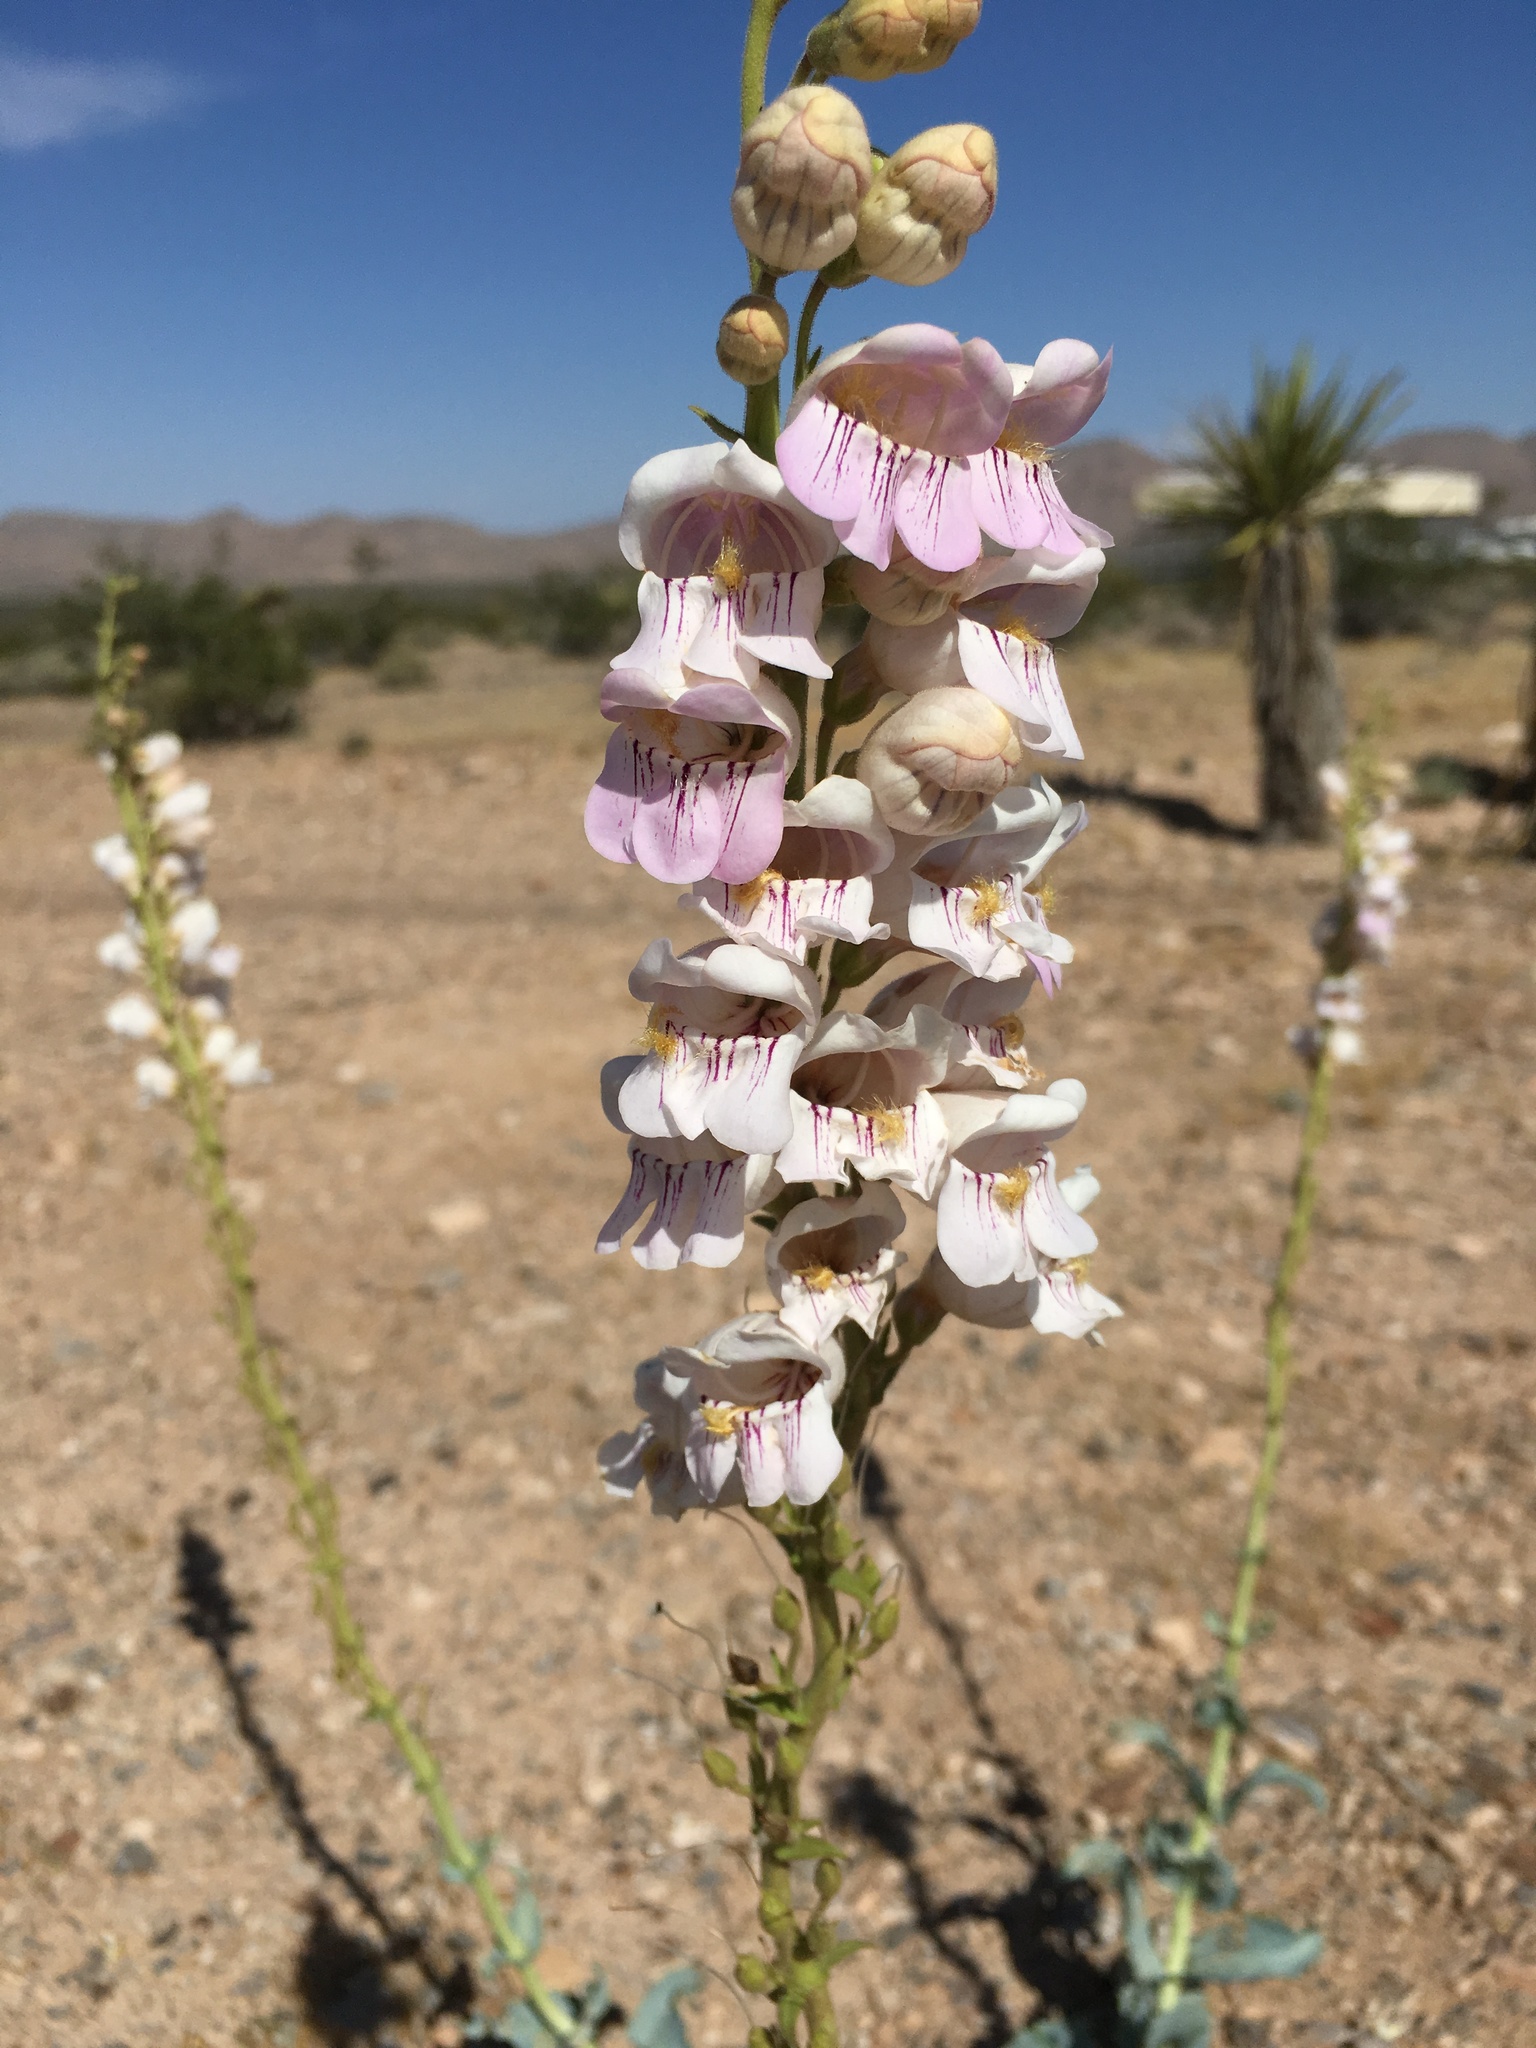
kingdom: Plantae
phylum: Tracheophyta
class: Magnoliopsida
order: Lamiales
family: Plantaginaceae
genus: Penstemon
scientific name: Penstemon palmeri
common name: Palmer penstemon
